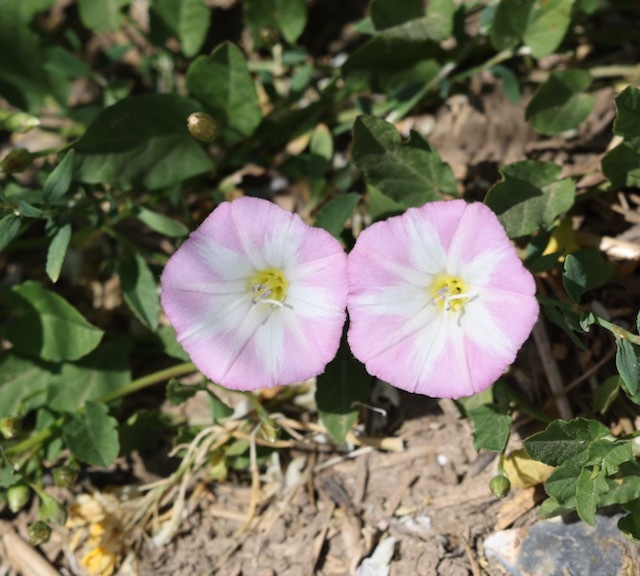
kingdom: Plantae
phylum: Tracheophyta
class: Magnoliopsida
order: Solanales
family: Convolvulaceae
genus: Convolvulus
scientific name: Convolvulus arvensis
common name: Field bindweed
